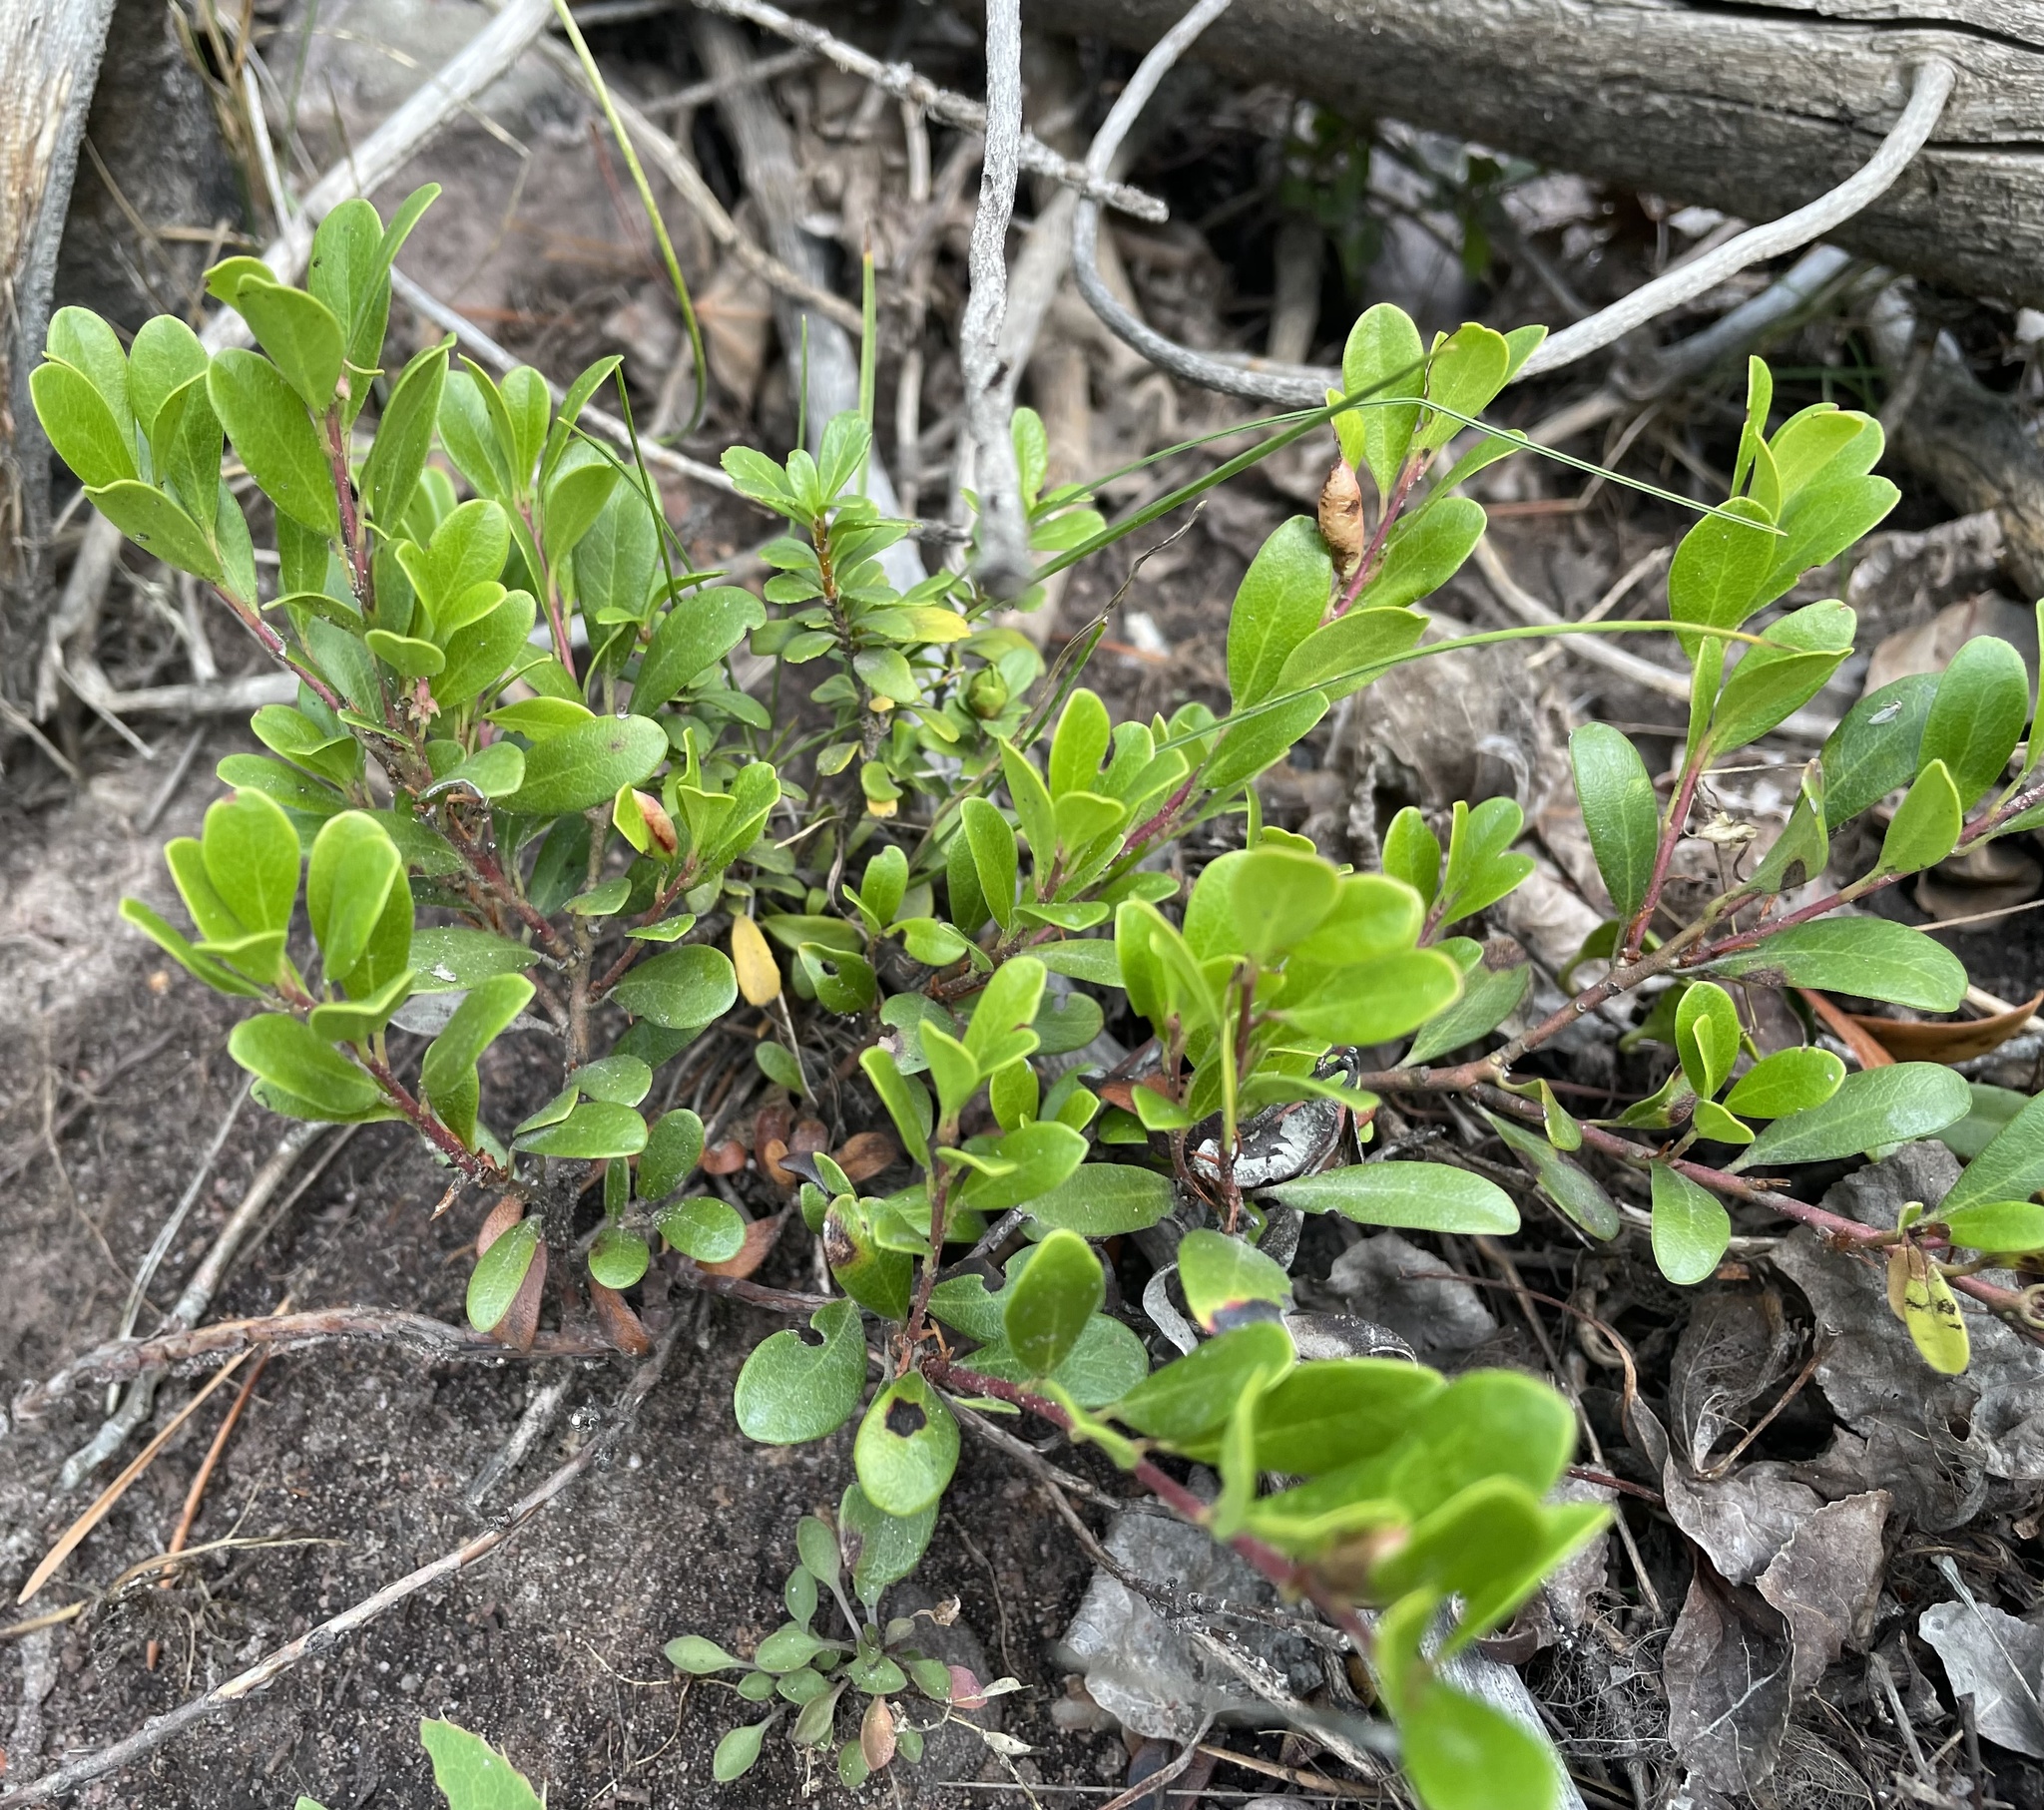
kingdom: Plantae
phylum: Tracheophyta
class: Magnoliopsida
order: Ericales
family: Ericaceae
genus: Arctostaphylos
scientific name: Arctostaphylos uva-ursi
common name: Bearberry
